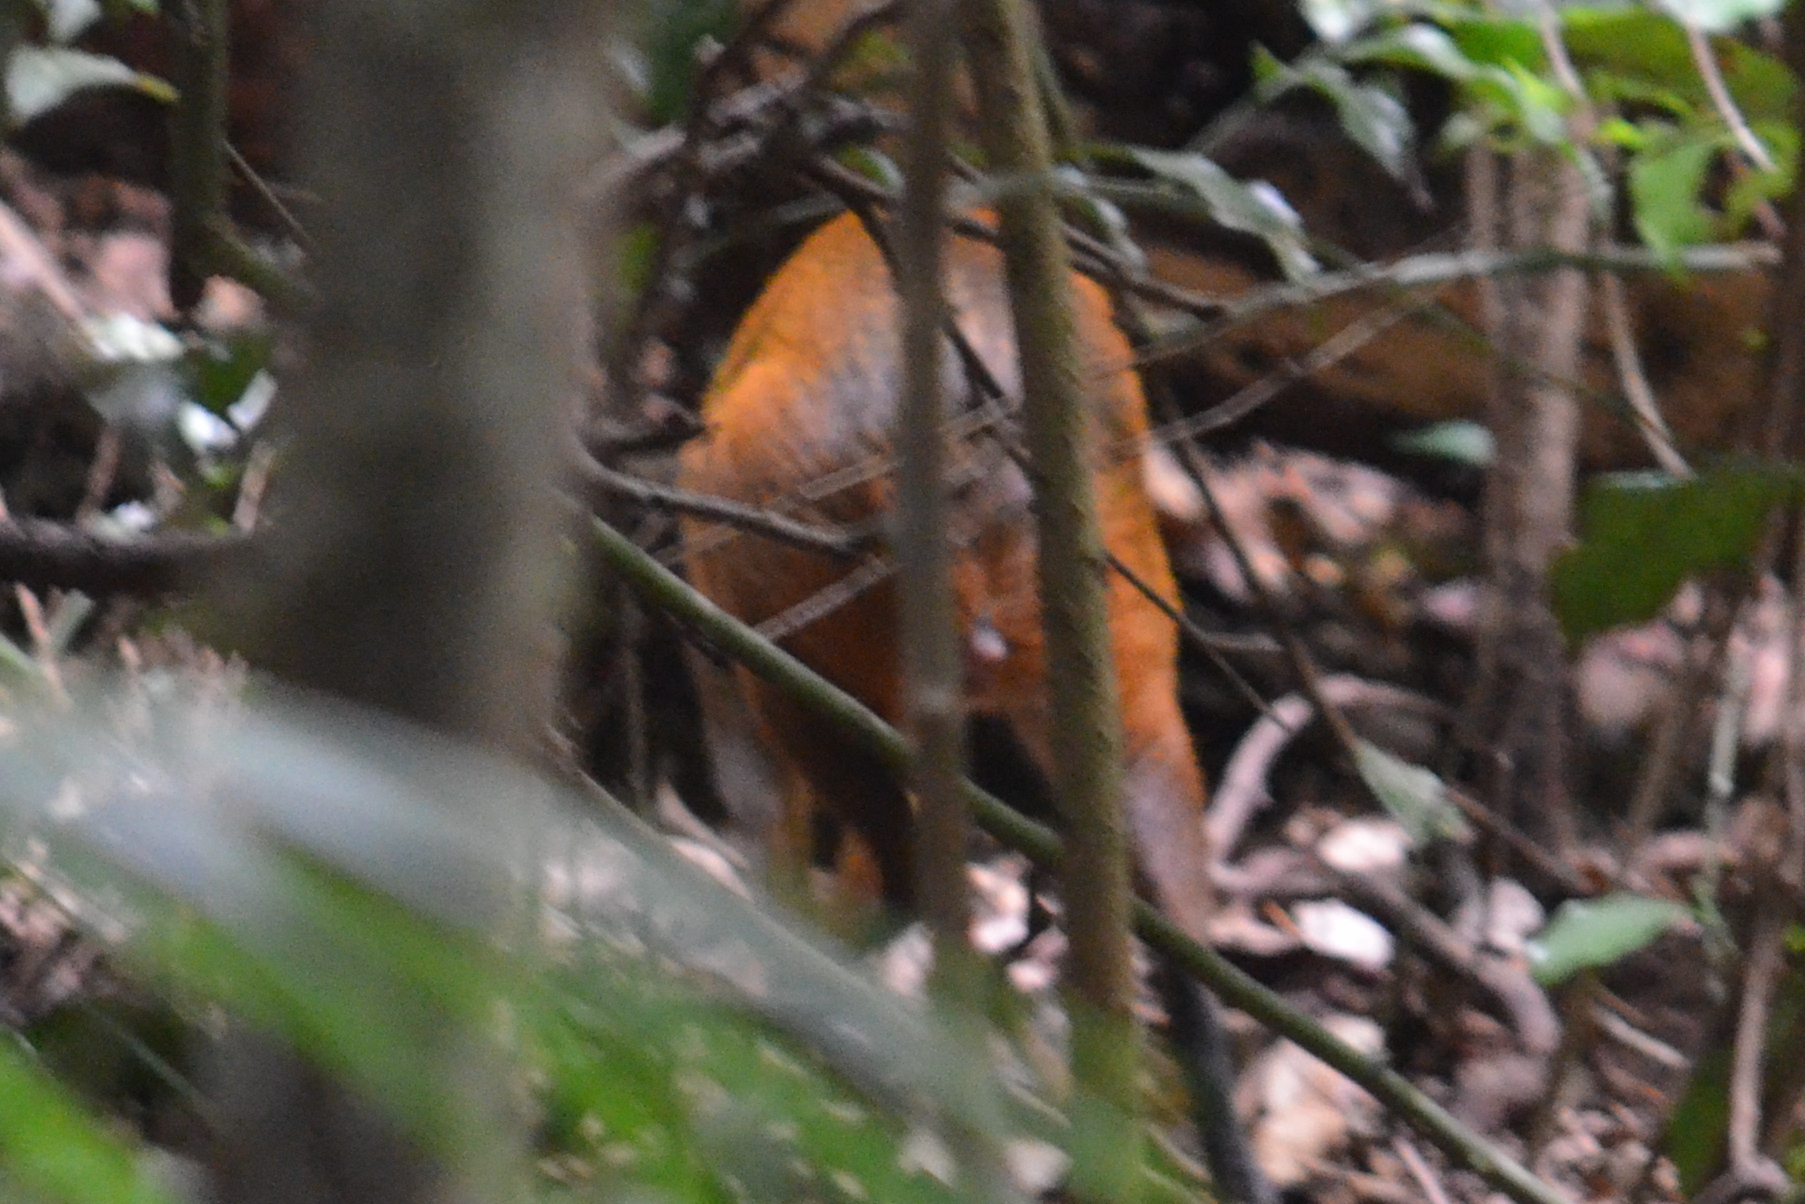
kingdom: Animalia
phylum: Chordata
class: Mammalia
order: Rodentia
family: Dasyproctidae
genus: Dasyprocta
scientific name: Dasyprocta leporina
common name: Red-rumped agouti
